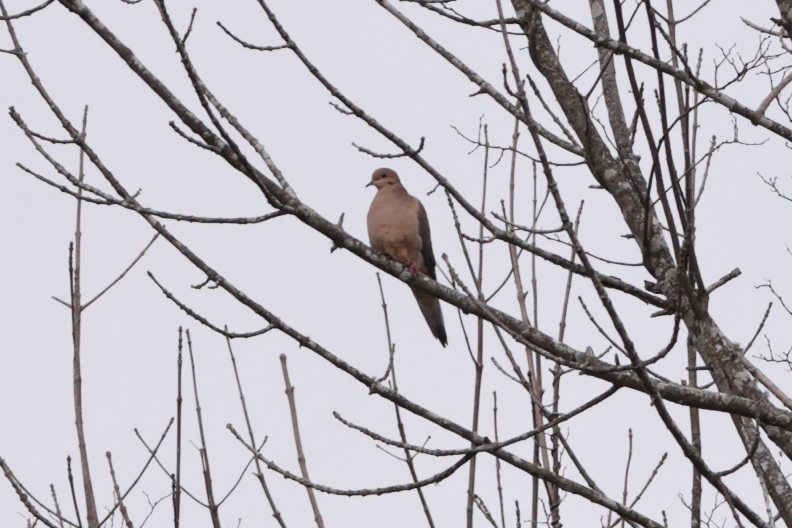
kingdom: Animalia
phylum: Chordata
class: Aves
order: Columbiformes
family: Columbidae
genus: Zenaida
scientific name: Zenaida macroura
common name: Mourning dove
